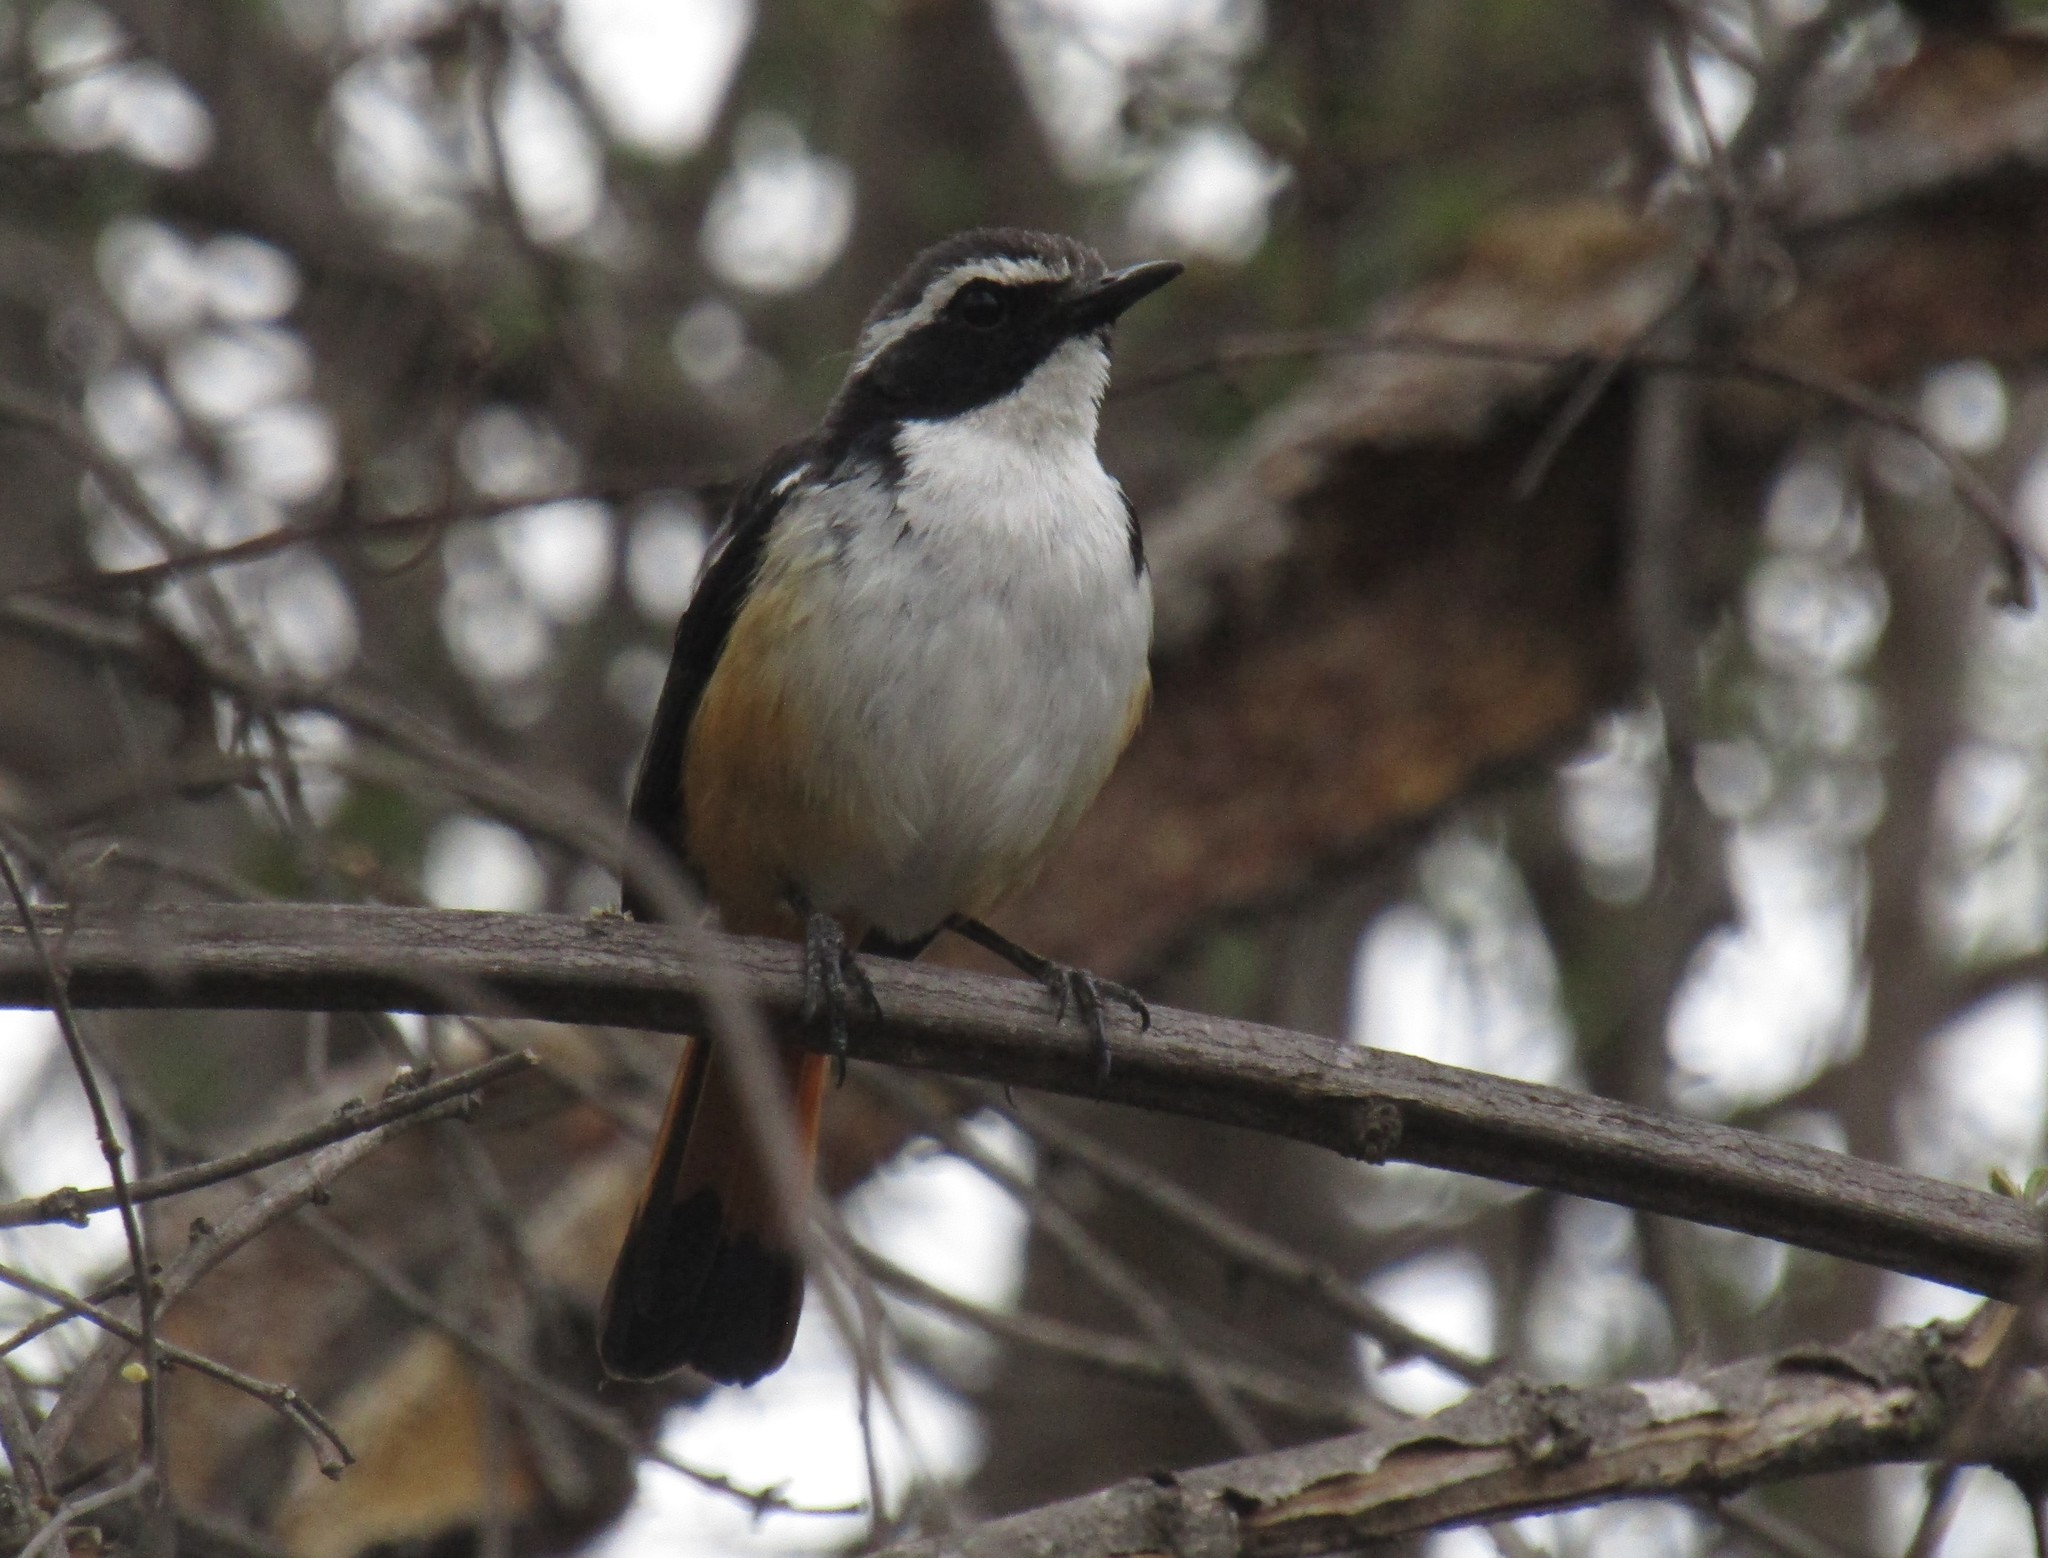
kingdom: Animalia
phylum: Chordata
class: Aves
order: Passeriformes
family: Muscicapidae
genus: Cossypha
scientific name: Cossypha humeralis
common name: White-throated robin-chat
